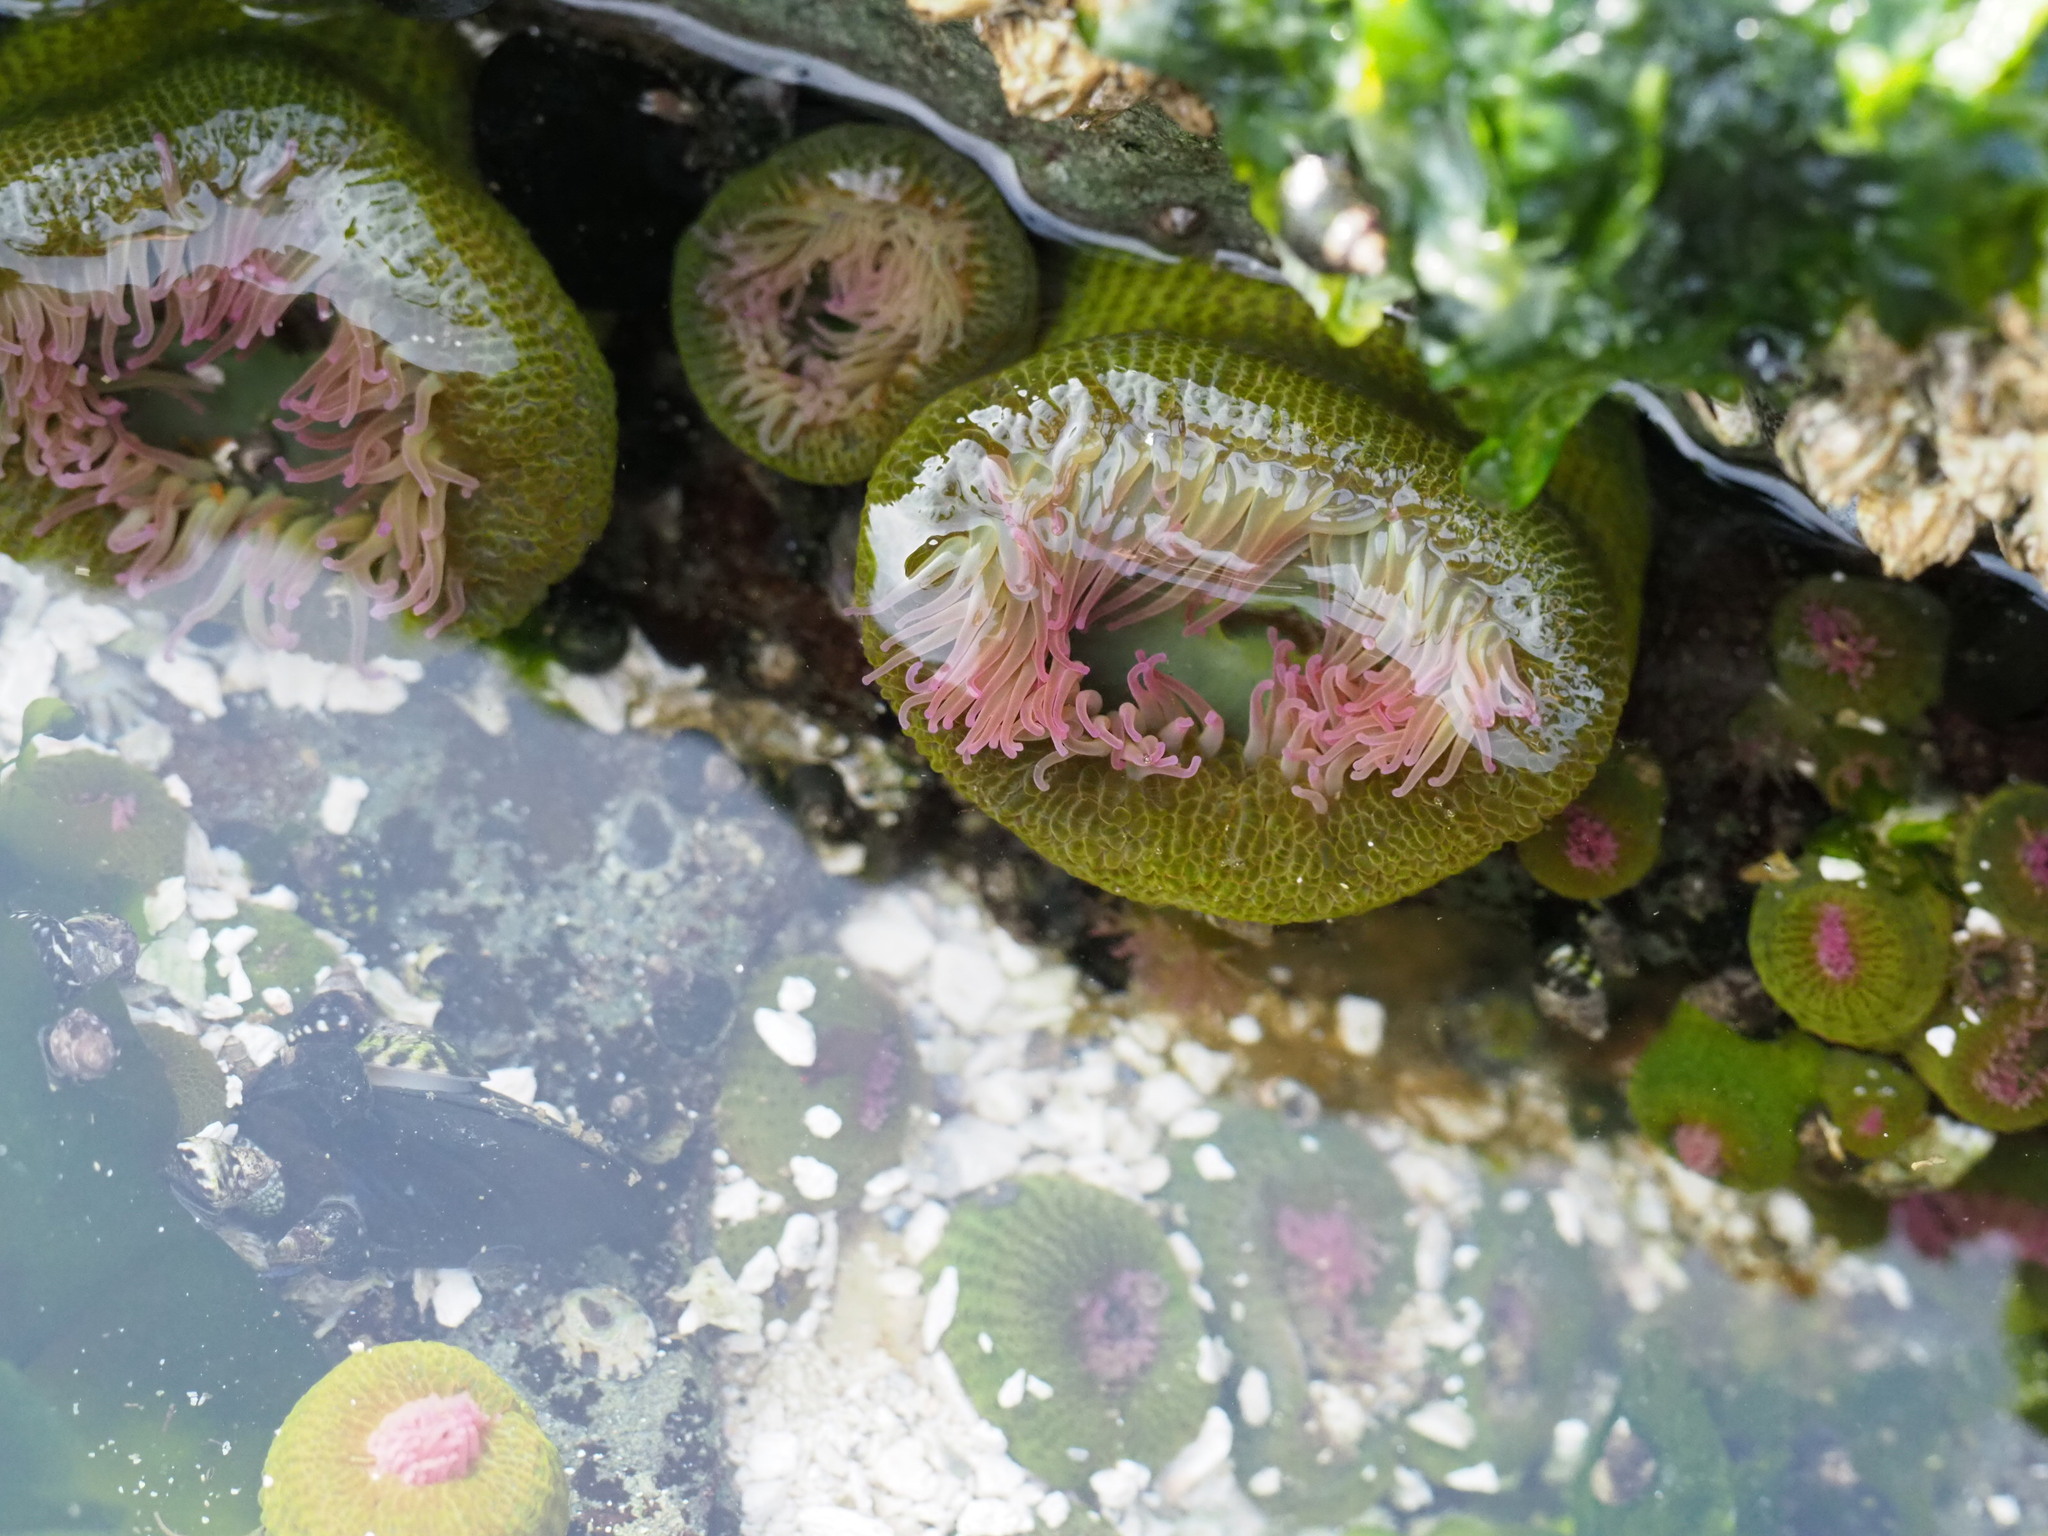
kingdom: Animalia
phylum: Cnidaria
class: Anthozoa
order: Actiniaria
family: Actiniidae
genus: Anthopleura
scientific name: Anthopleura elegantissima
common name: Clonal anemone
